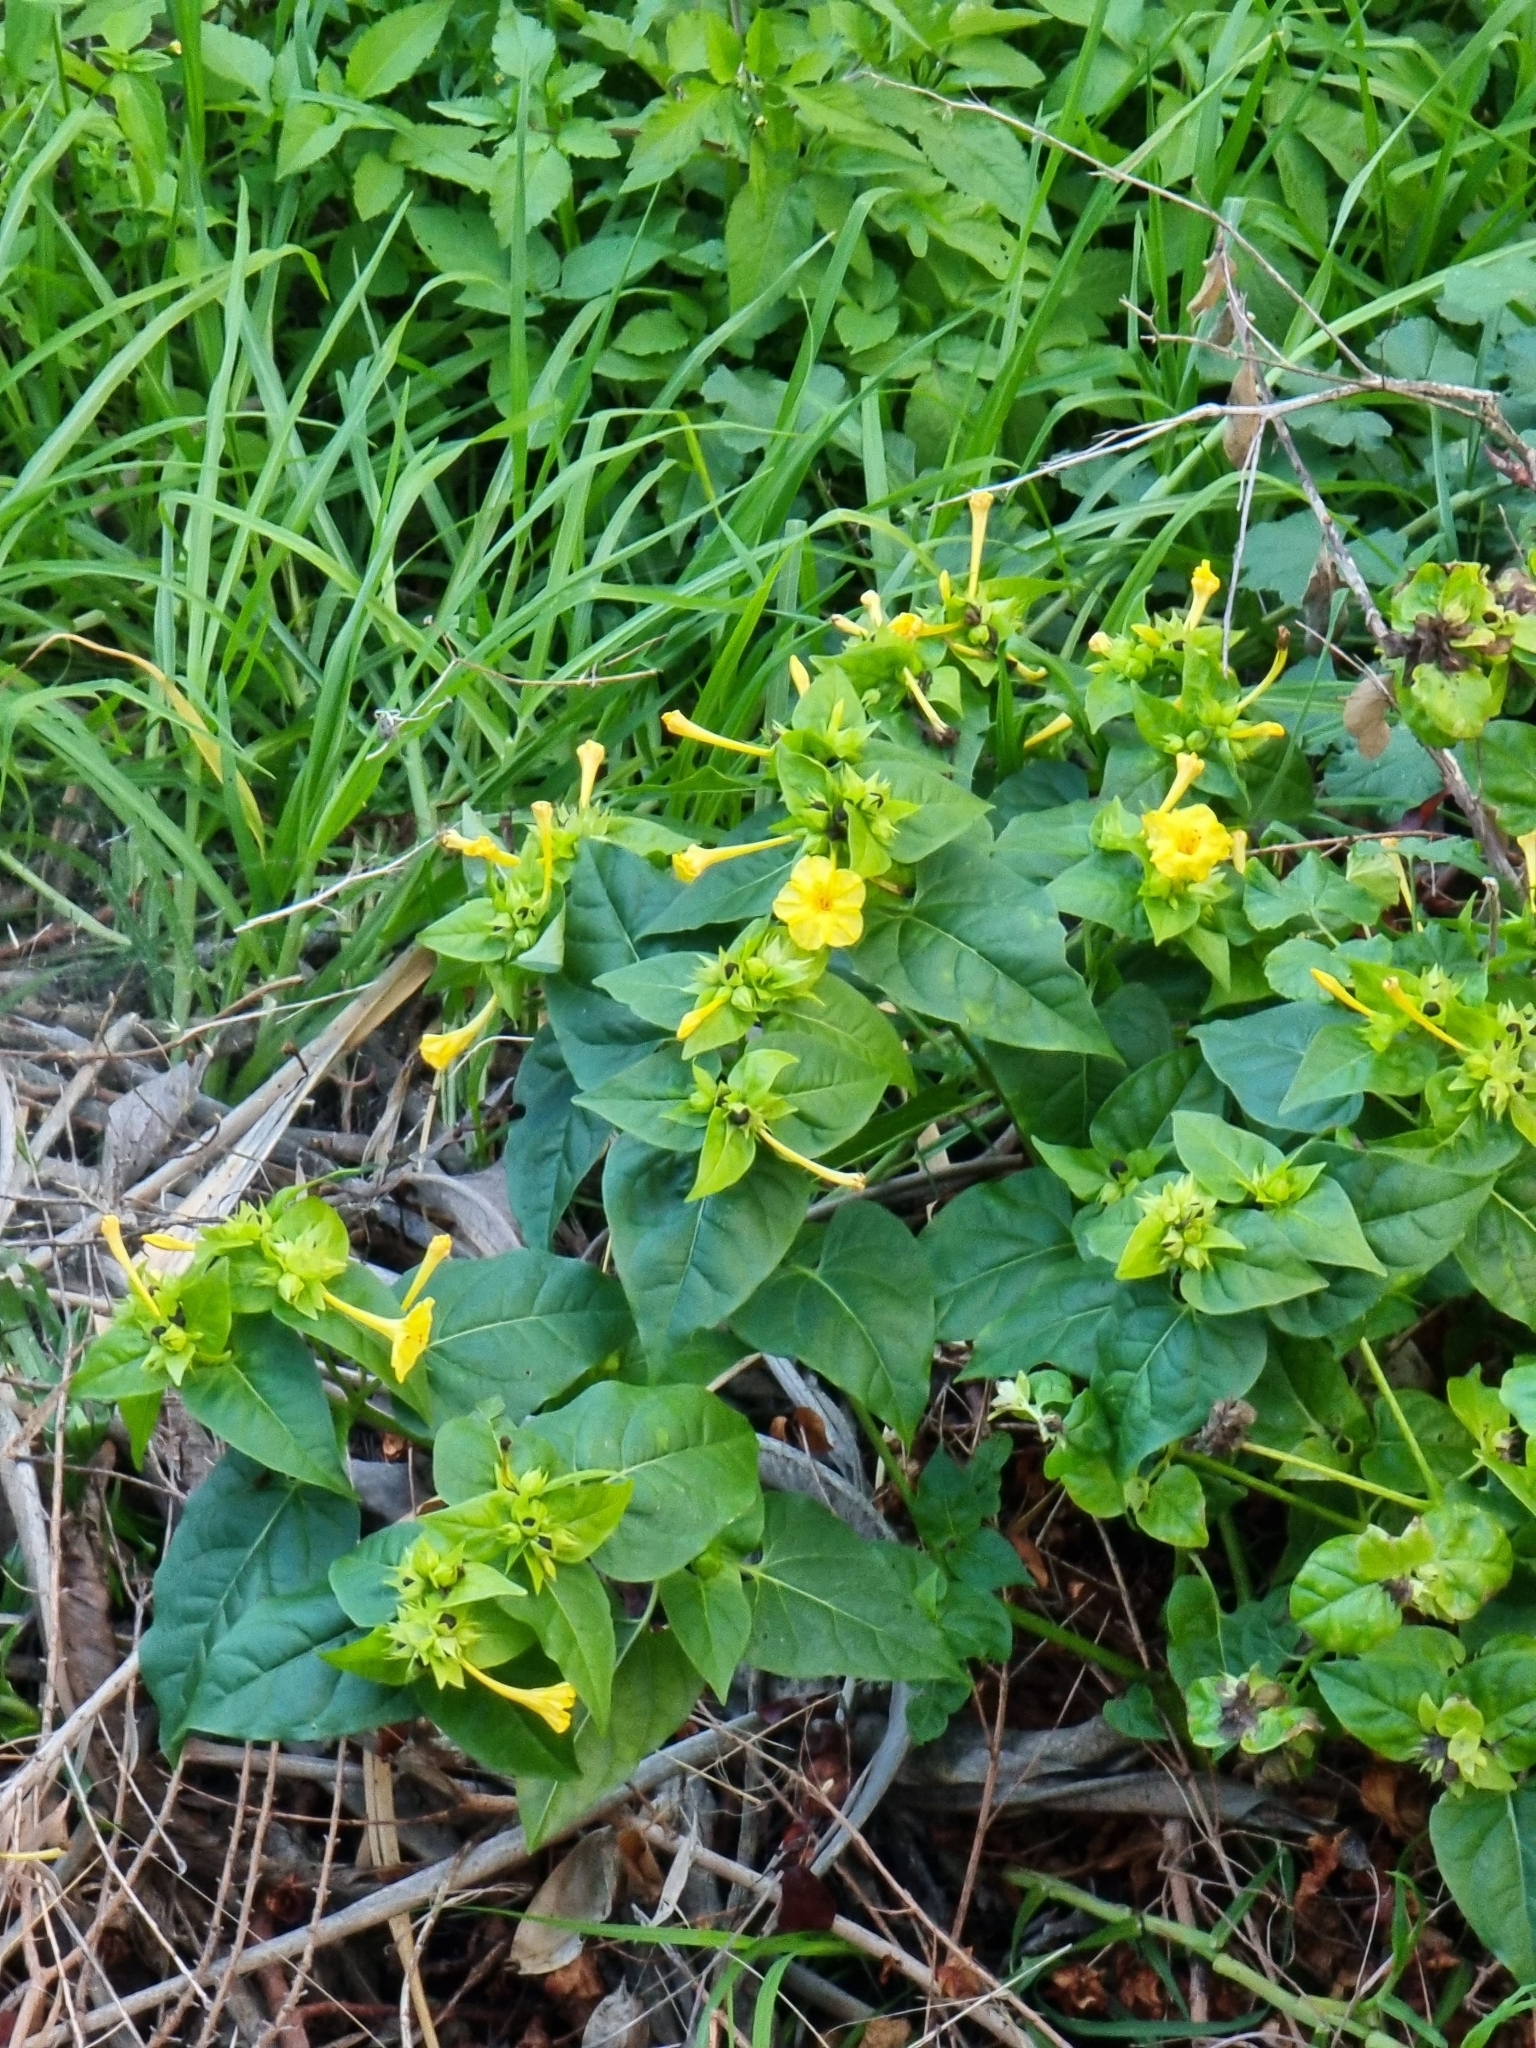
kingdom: Plantae
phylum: Tracheophyta
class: Magnoliopsida
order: Caryophyllales
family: Nyctaginaceae
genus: Mirabilis
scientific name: Mirabilis jalapa
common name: Marvel-of-peru
